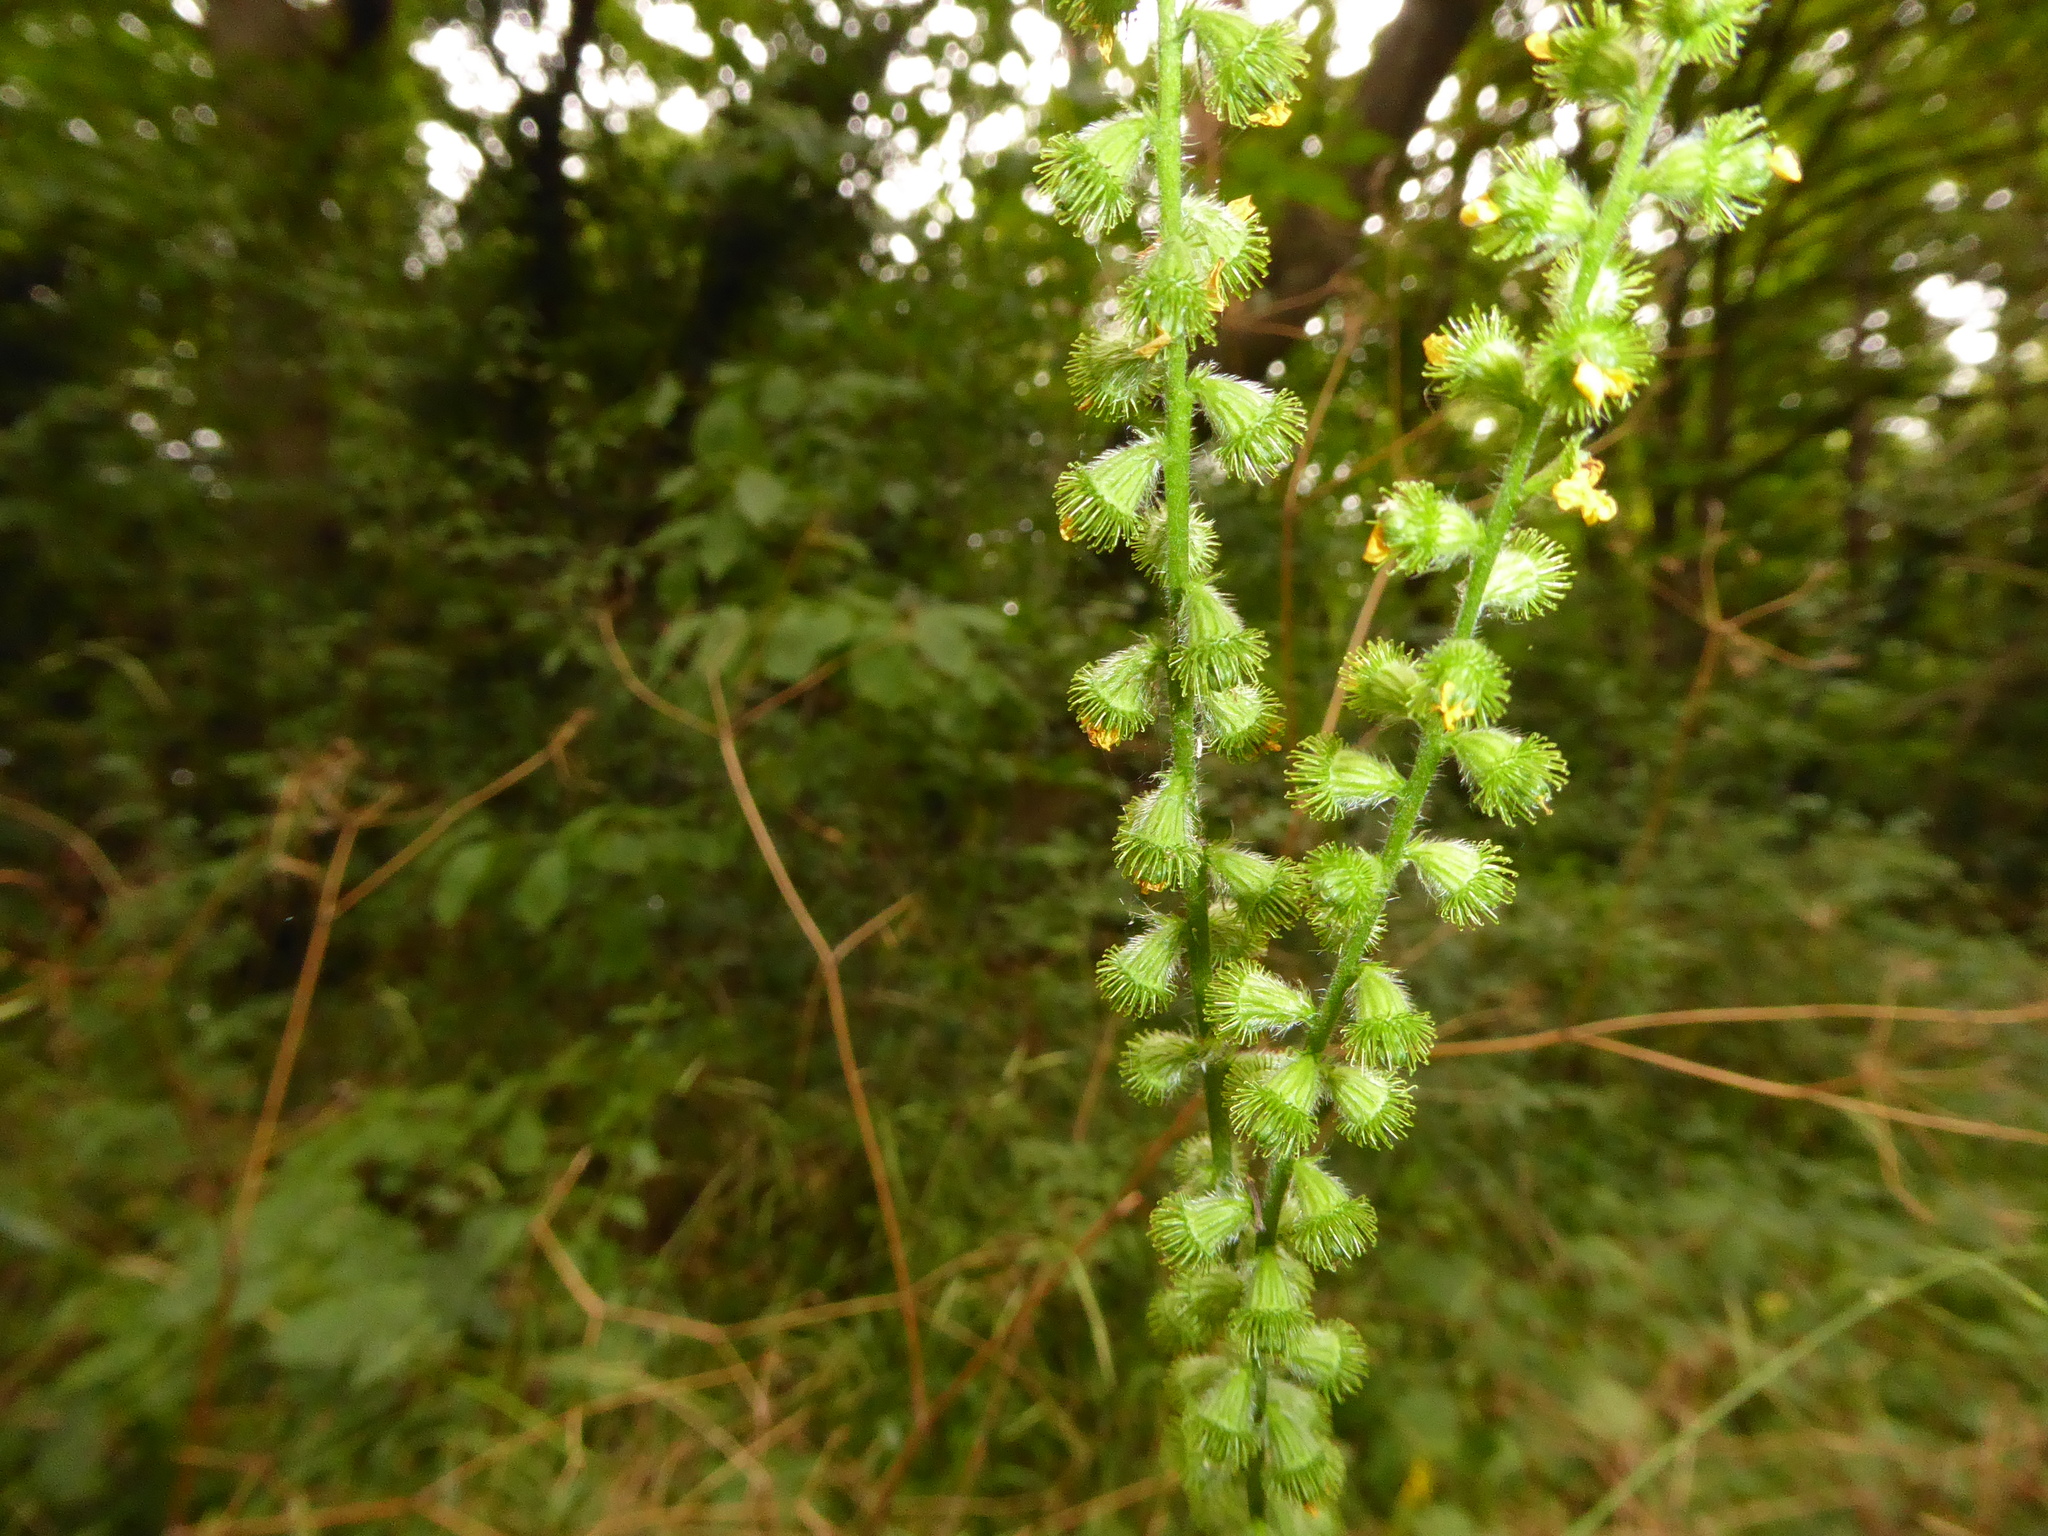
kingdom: Plantae
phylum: Tracheophyta
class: Magnoliopsida
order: Rosales
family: Rosaceae
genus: Agrimonia
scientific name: Agrimonia eupatoria
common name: Agrimony
